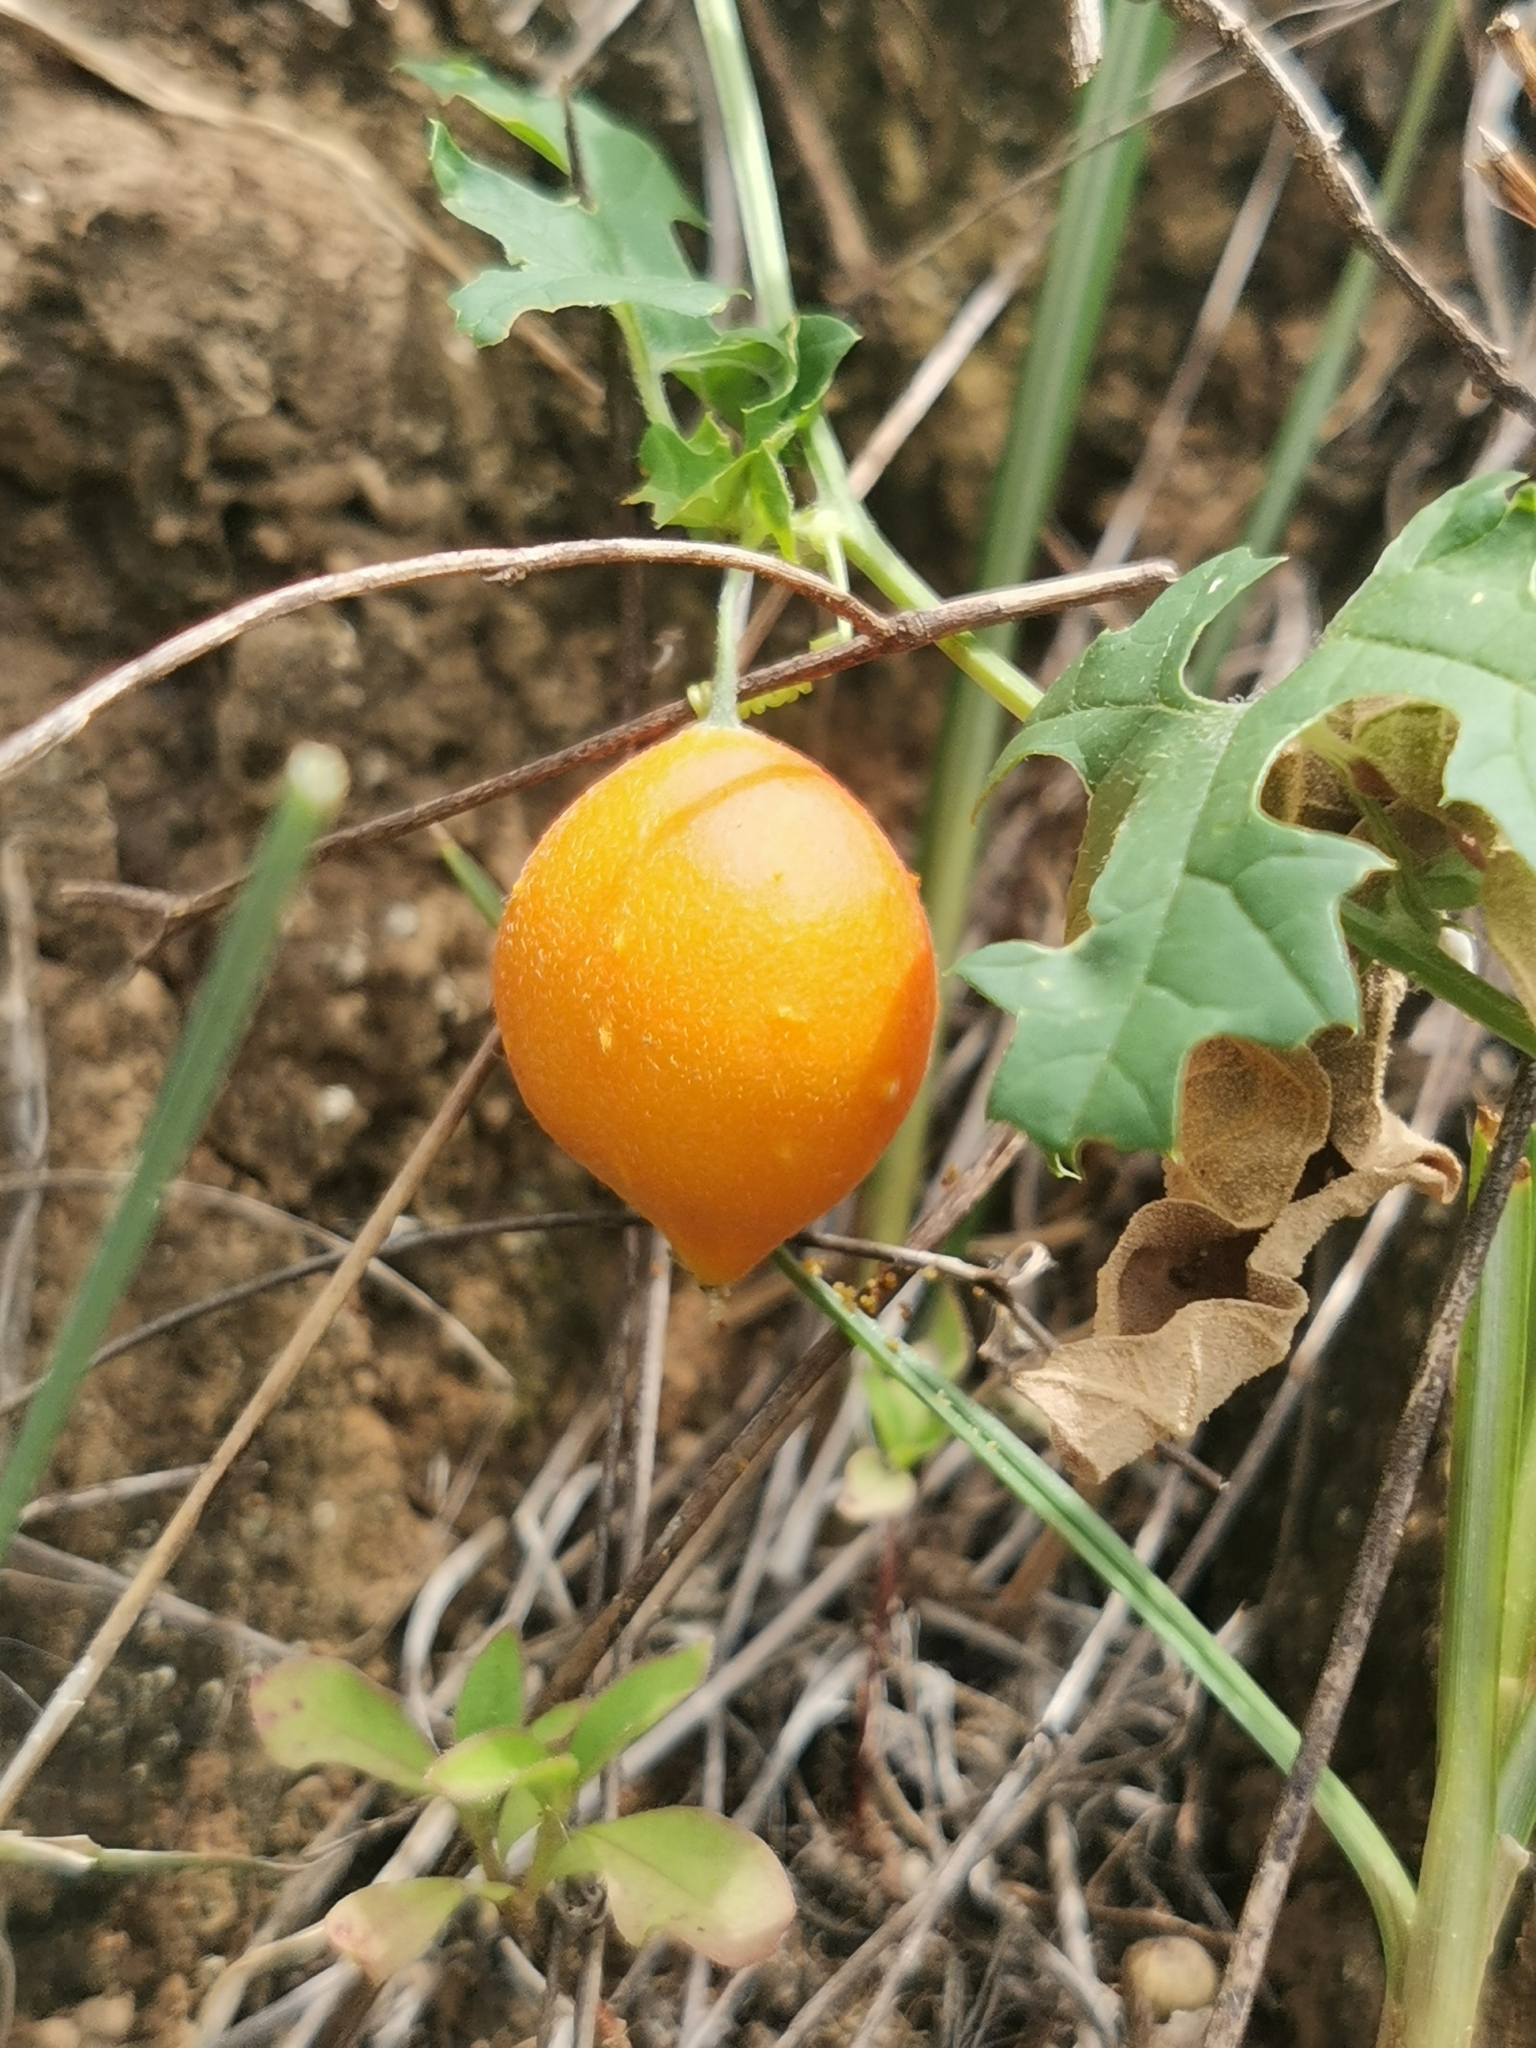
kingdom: Plantae
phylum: Tracheophyta
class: Magnoliopsida
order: Cucurbitales
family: Cucurbitaceae
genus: Momordica
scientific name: Momordica balsamina
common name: Southern balsampear
